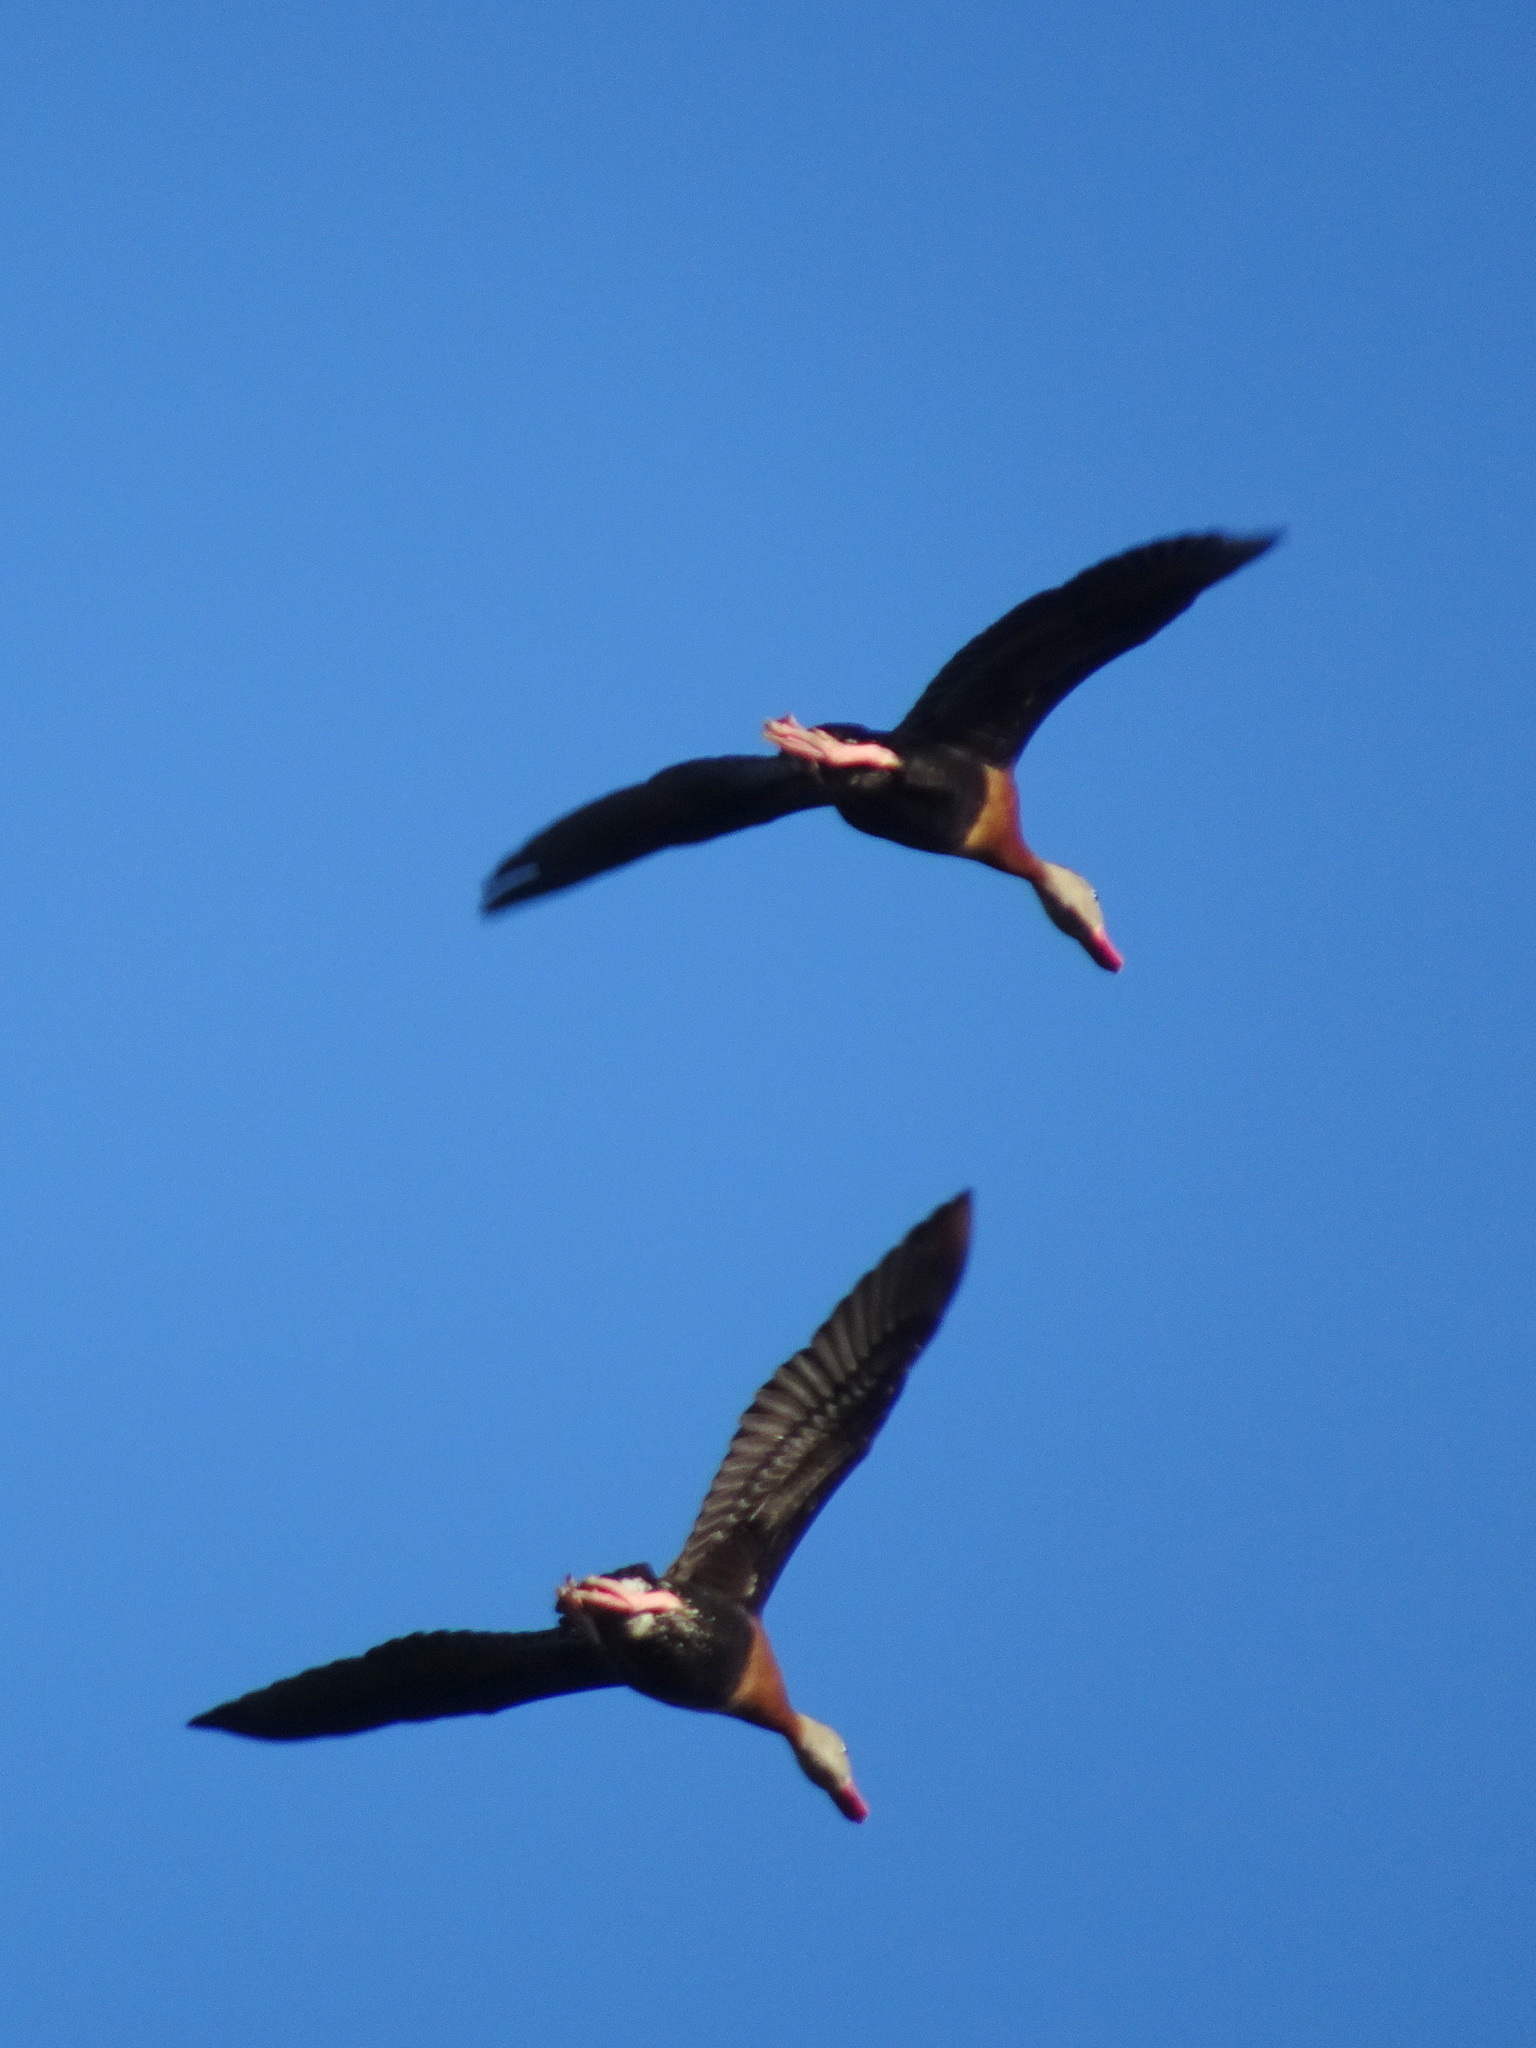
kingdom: Animalia
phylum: Chordata
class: Aves
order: Anseriformes
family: Anatidae
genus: Dendrocygna
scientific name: Dendrocygna autumnalis
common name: Black-bellied whistling duck
